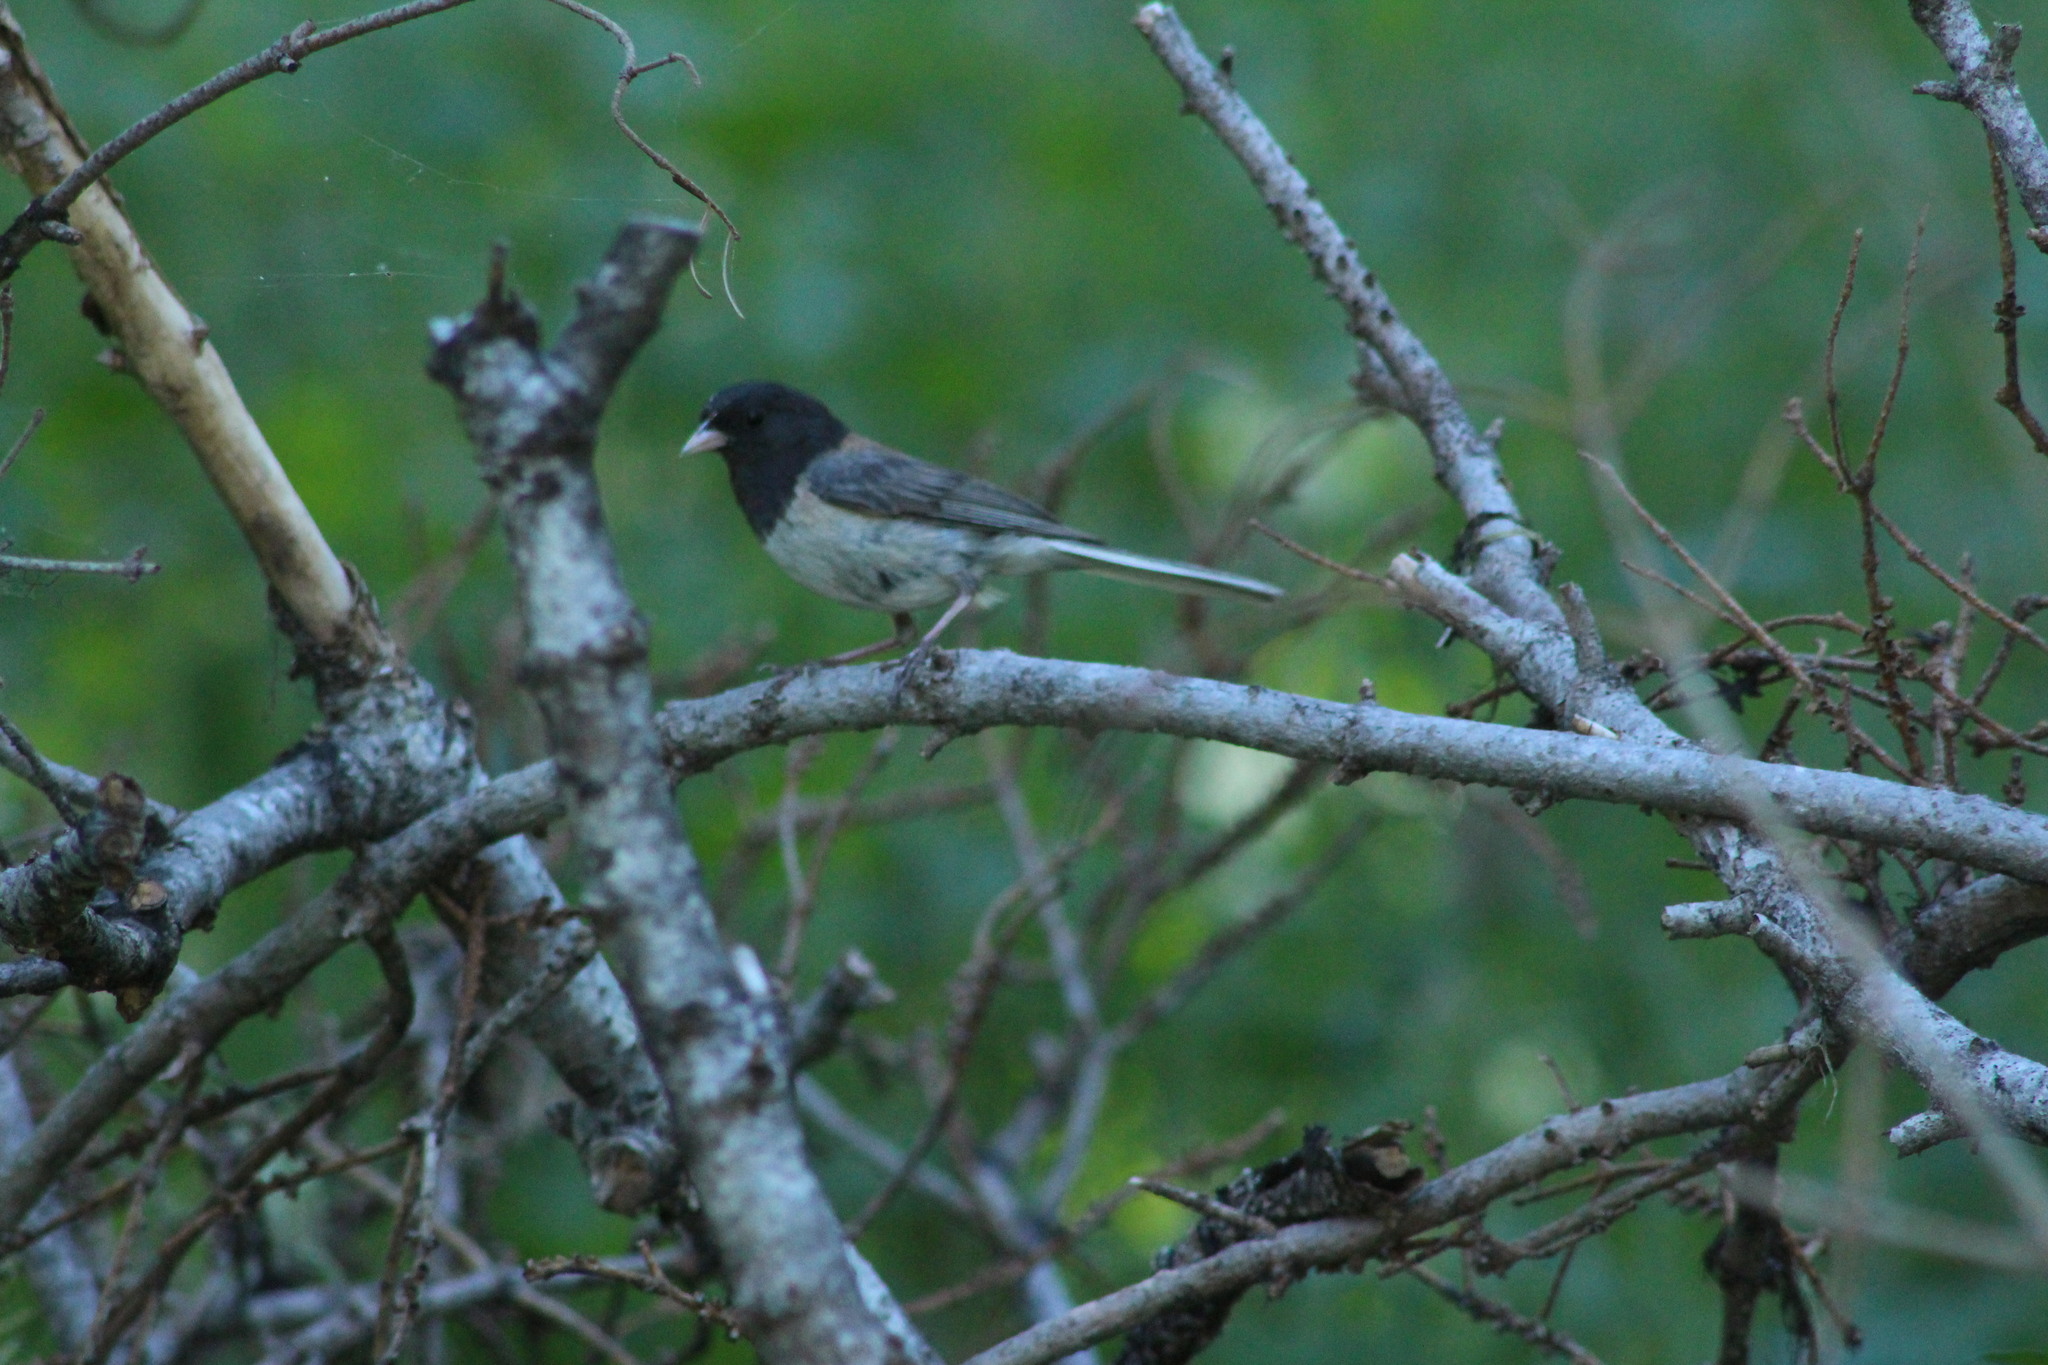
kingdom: Animalia
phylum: Chordata
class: Aves
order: Passeriformes
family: Passerellidae
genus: Junco
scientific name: Junco hyemalis
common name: Dark-eyed junco
